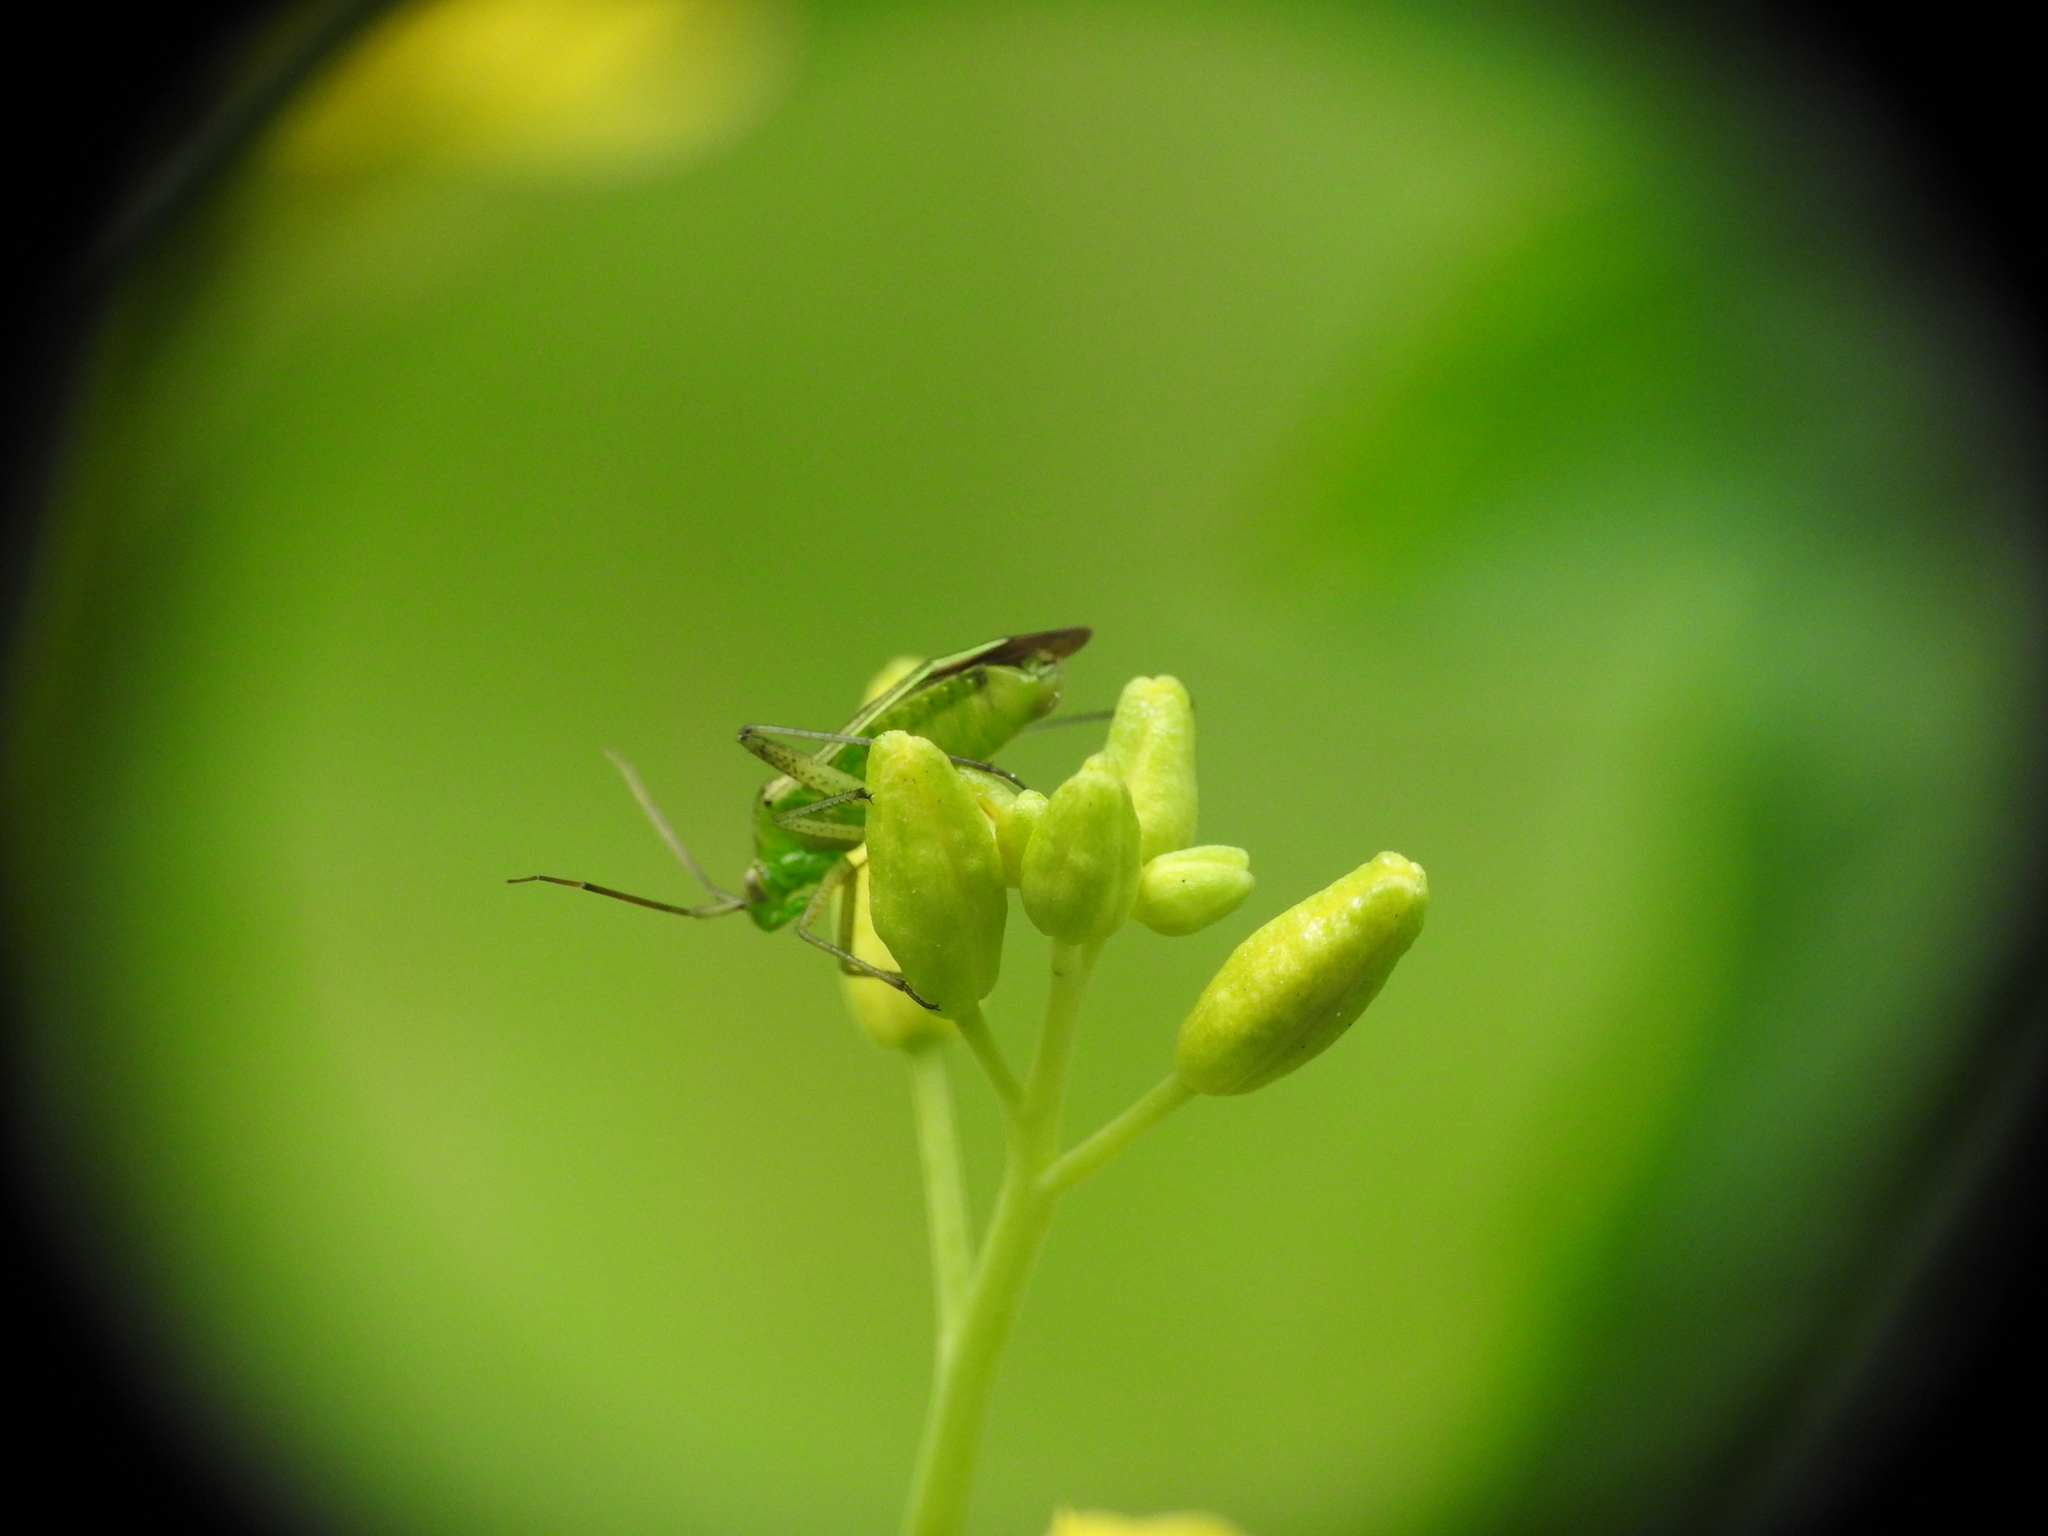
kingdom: Animalia
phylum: Arthropoda
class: Insecta
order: Hemiptera
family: Miridae
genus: Closterotomus
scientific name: Closterotomus norvegicus
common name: Plant bug
